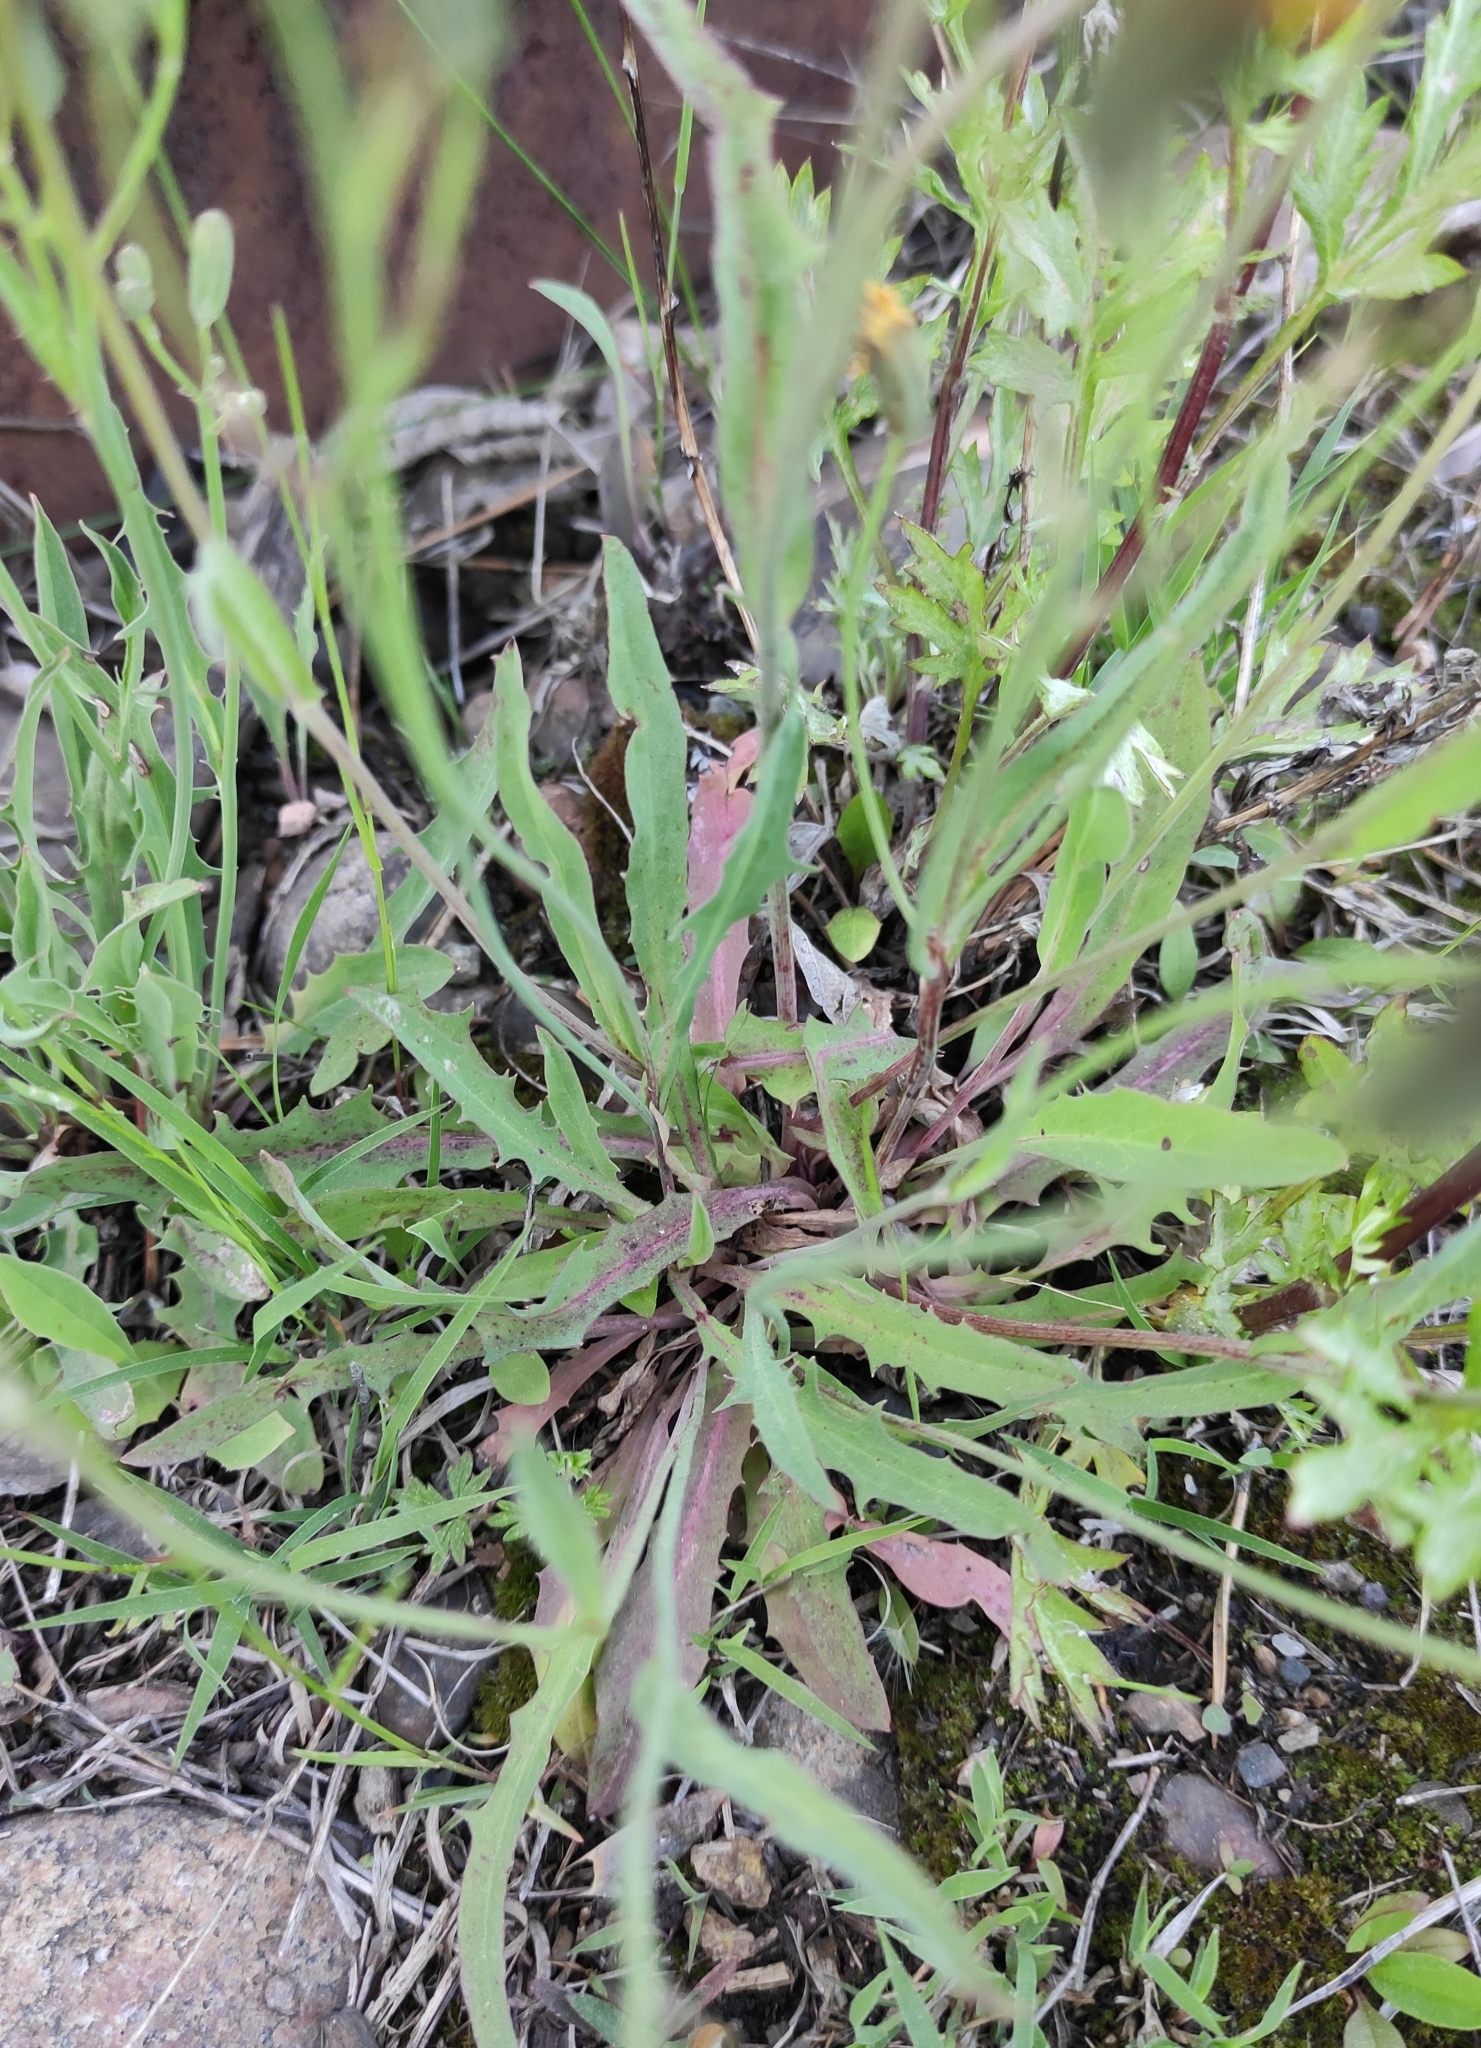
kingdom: Plantae
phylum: Tracheophyta
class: Magnoliopsida
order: Asterales
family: Asteraceae
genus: Ixeris
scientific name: Ixeris chinensis
